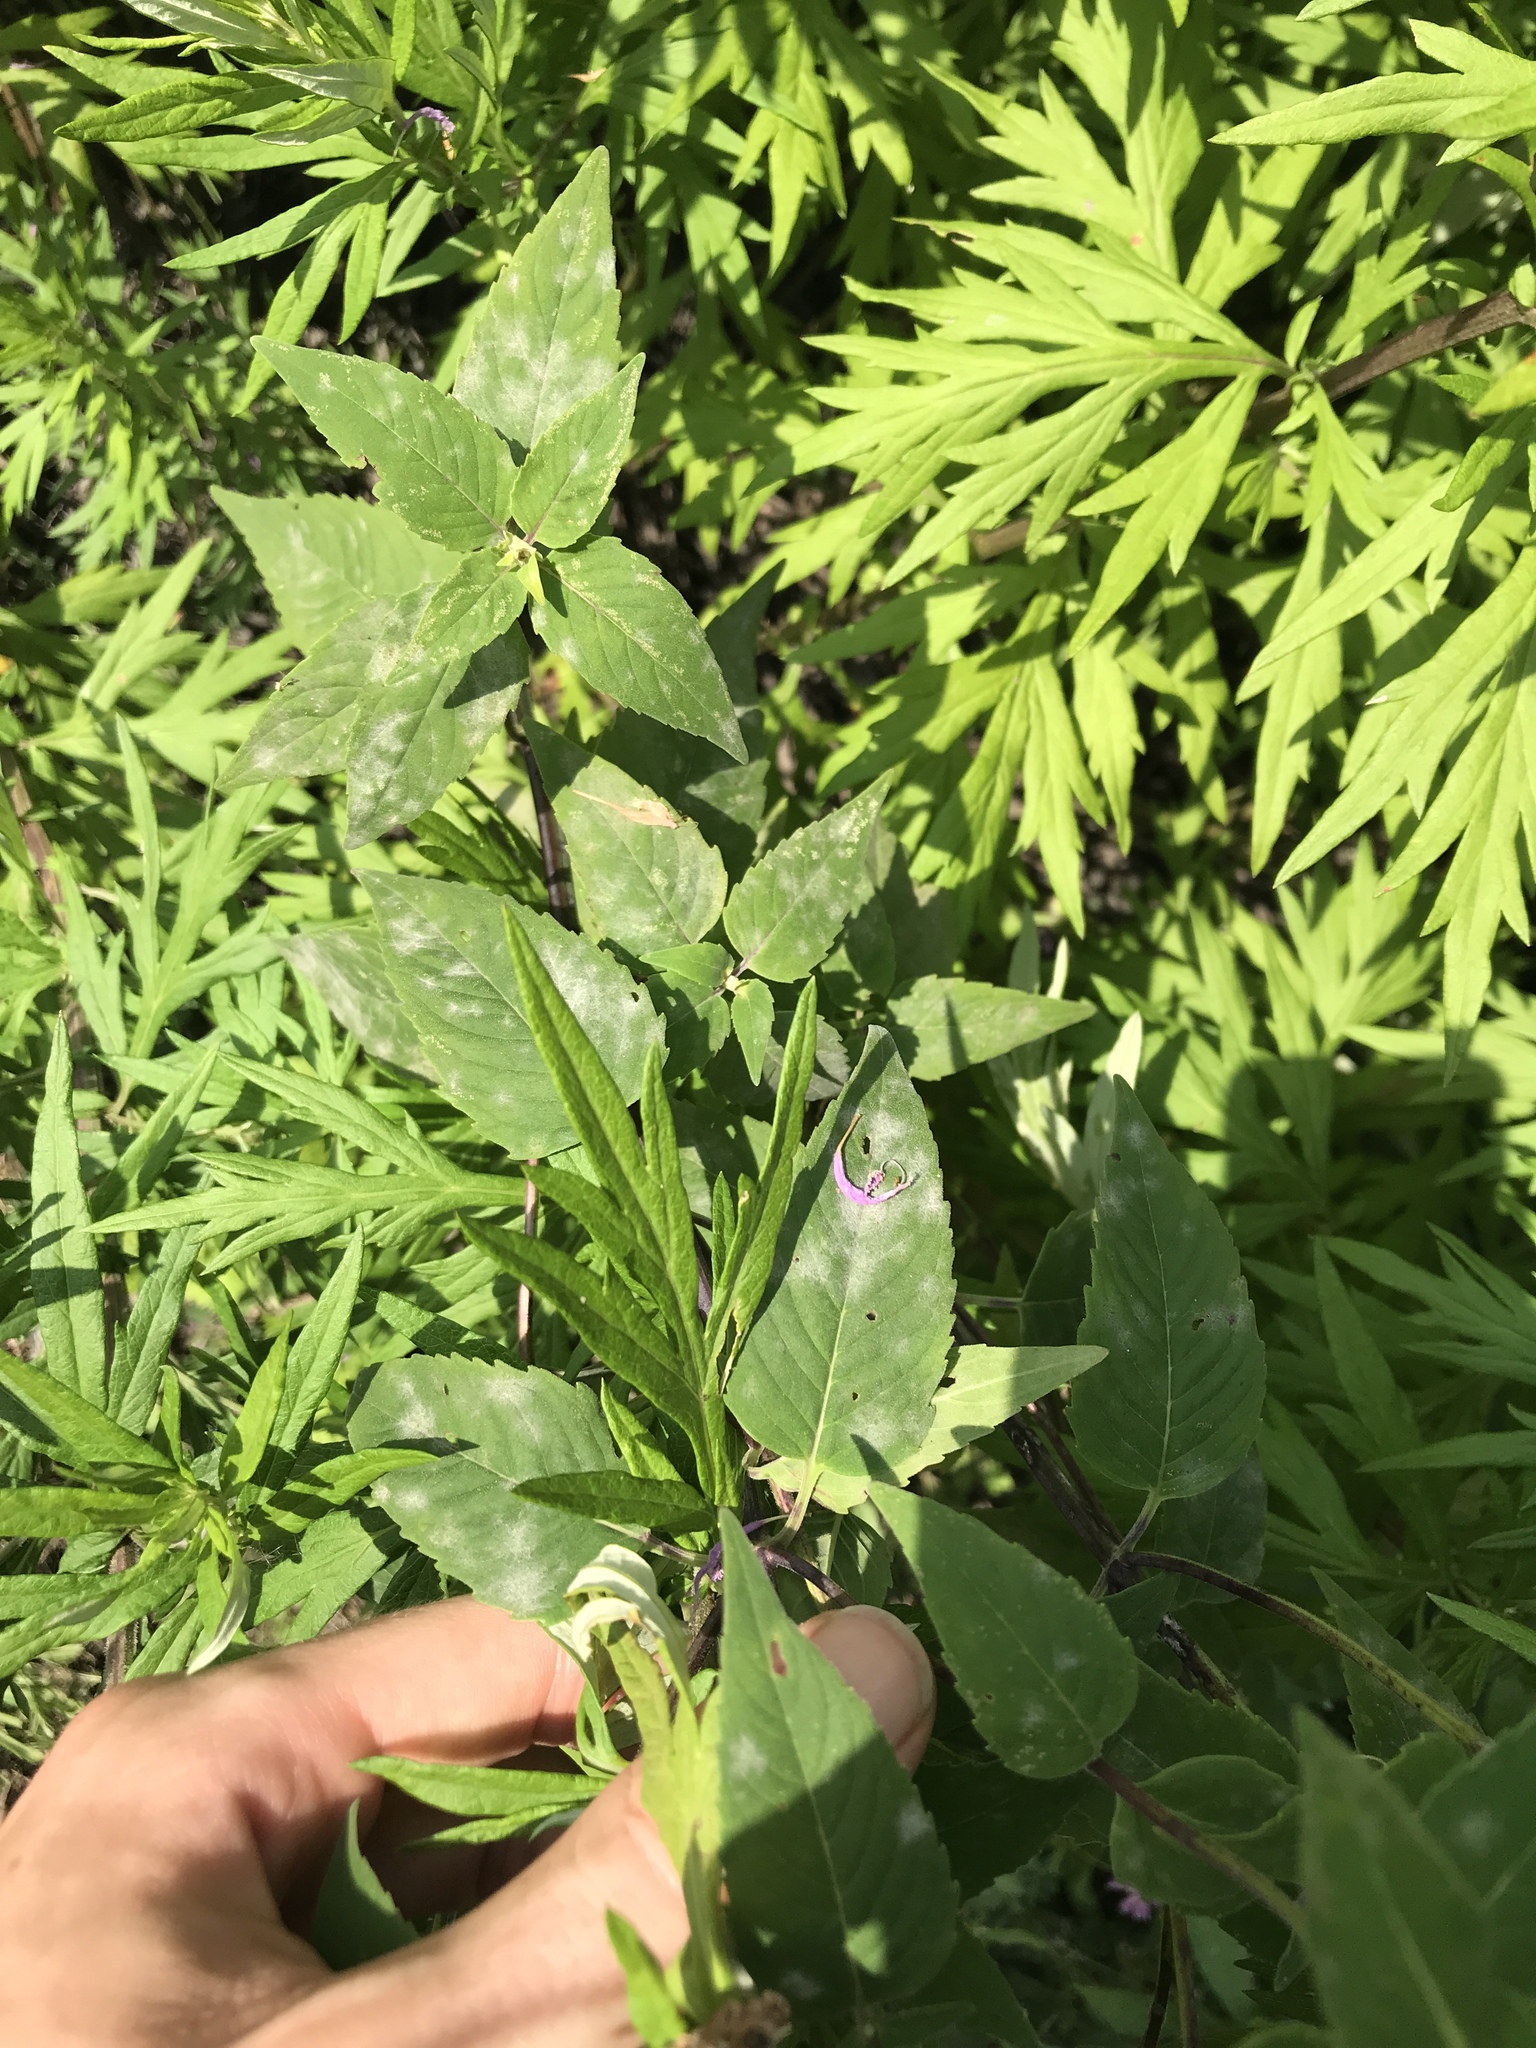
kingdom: Plantae
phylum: Tracheophyta
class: Magnoliopsida
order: Lamiales
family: Lamiaceae
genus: Monarda
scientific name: Monarda fistulosa
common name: Purple beebalm
